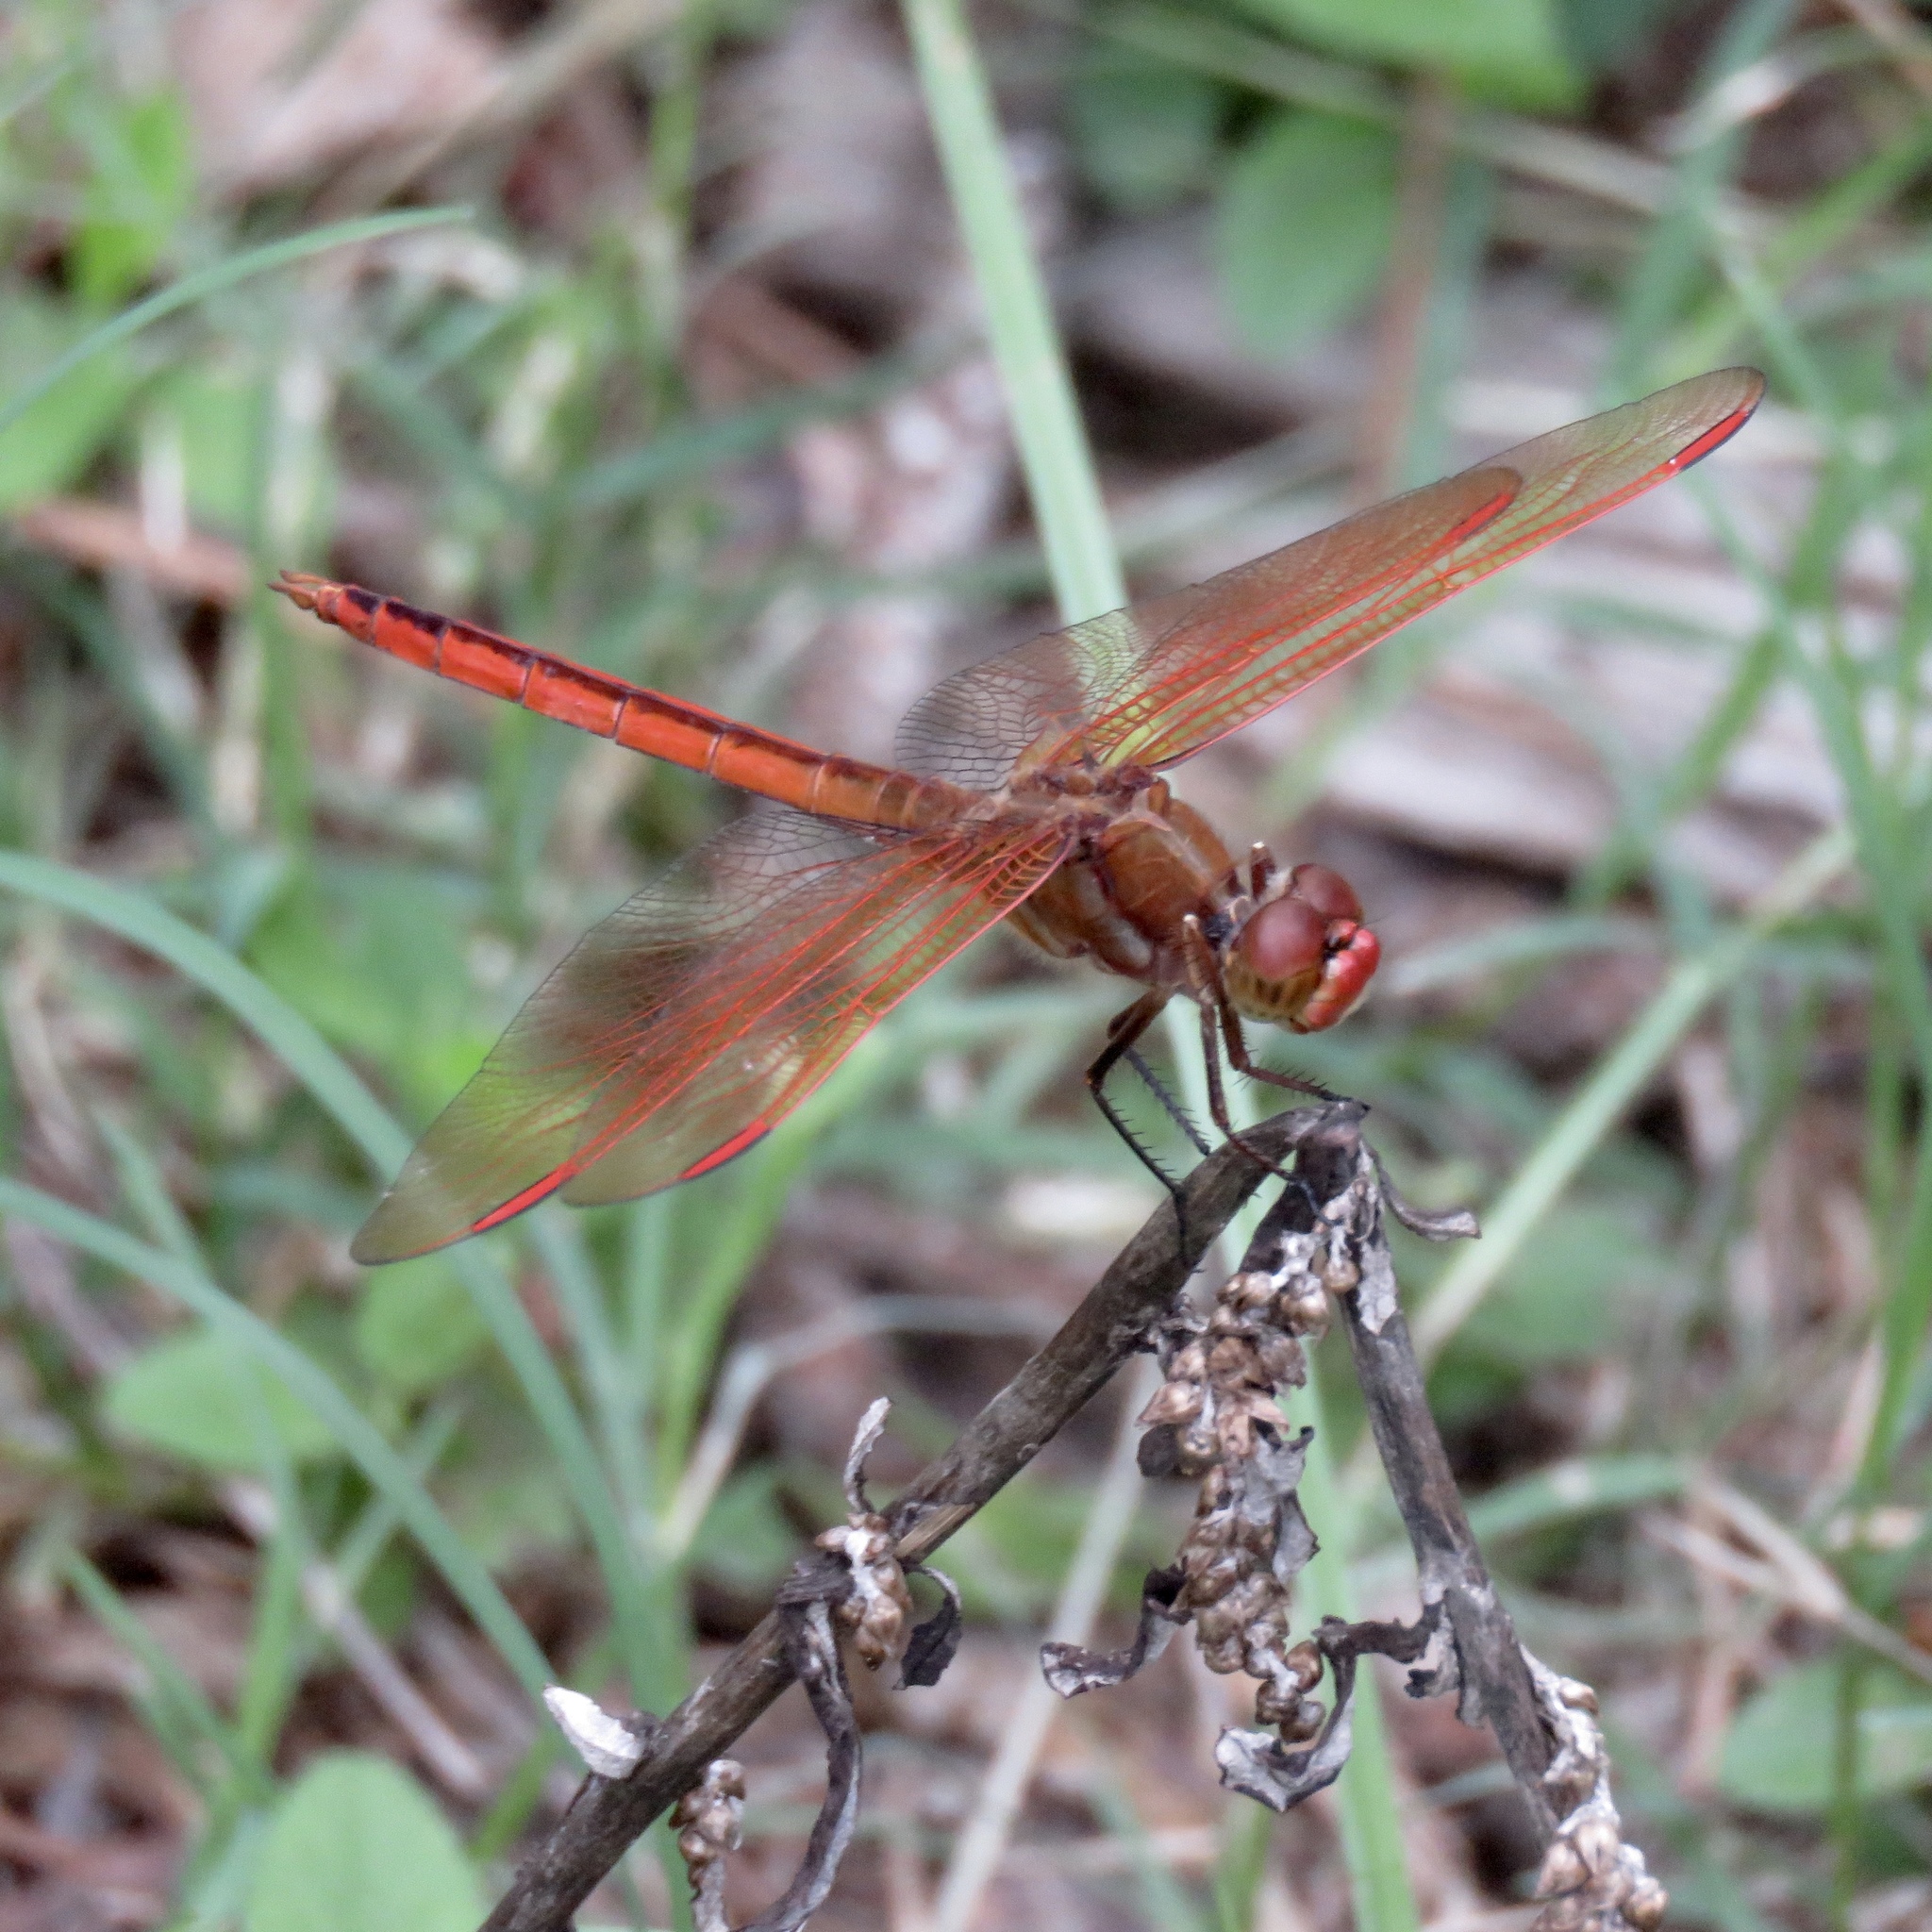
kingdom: Animalia
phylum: Arthropoda
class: Insecta
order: Odonata
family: Libellulidae
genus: Libellula
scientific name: Libellula auripennis
